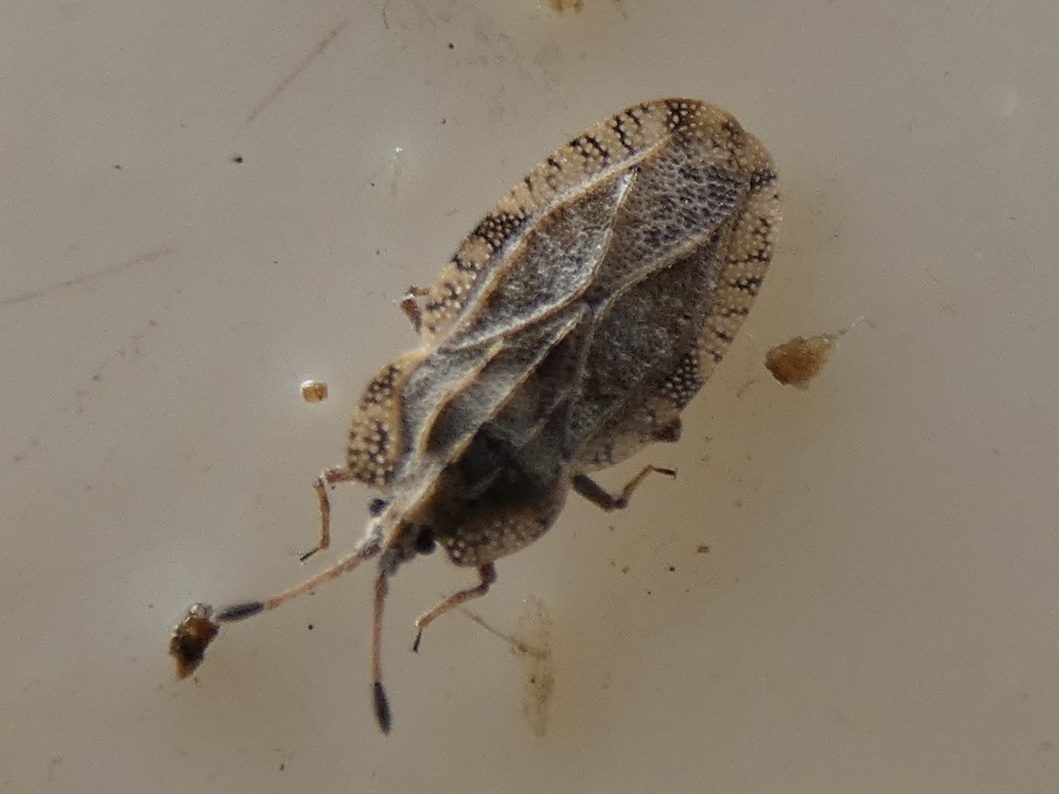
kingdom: Animalia
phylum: Arthropoda
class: Insecta
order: Hemiptera
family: Tingidae
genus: Tingis
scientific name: Tingis ampliata
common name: Creeping thistle lacebug
